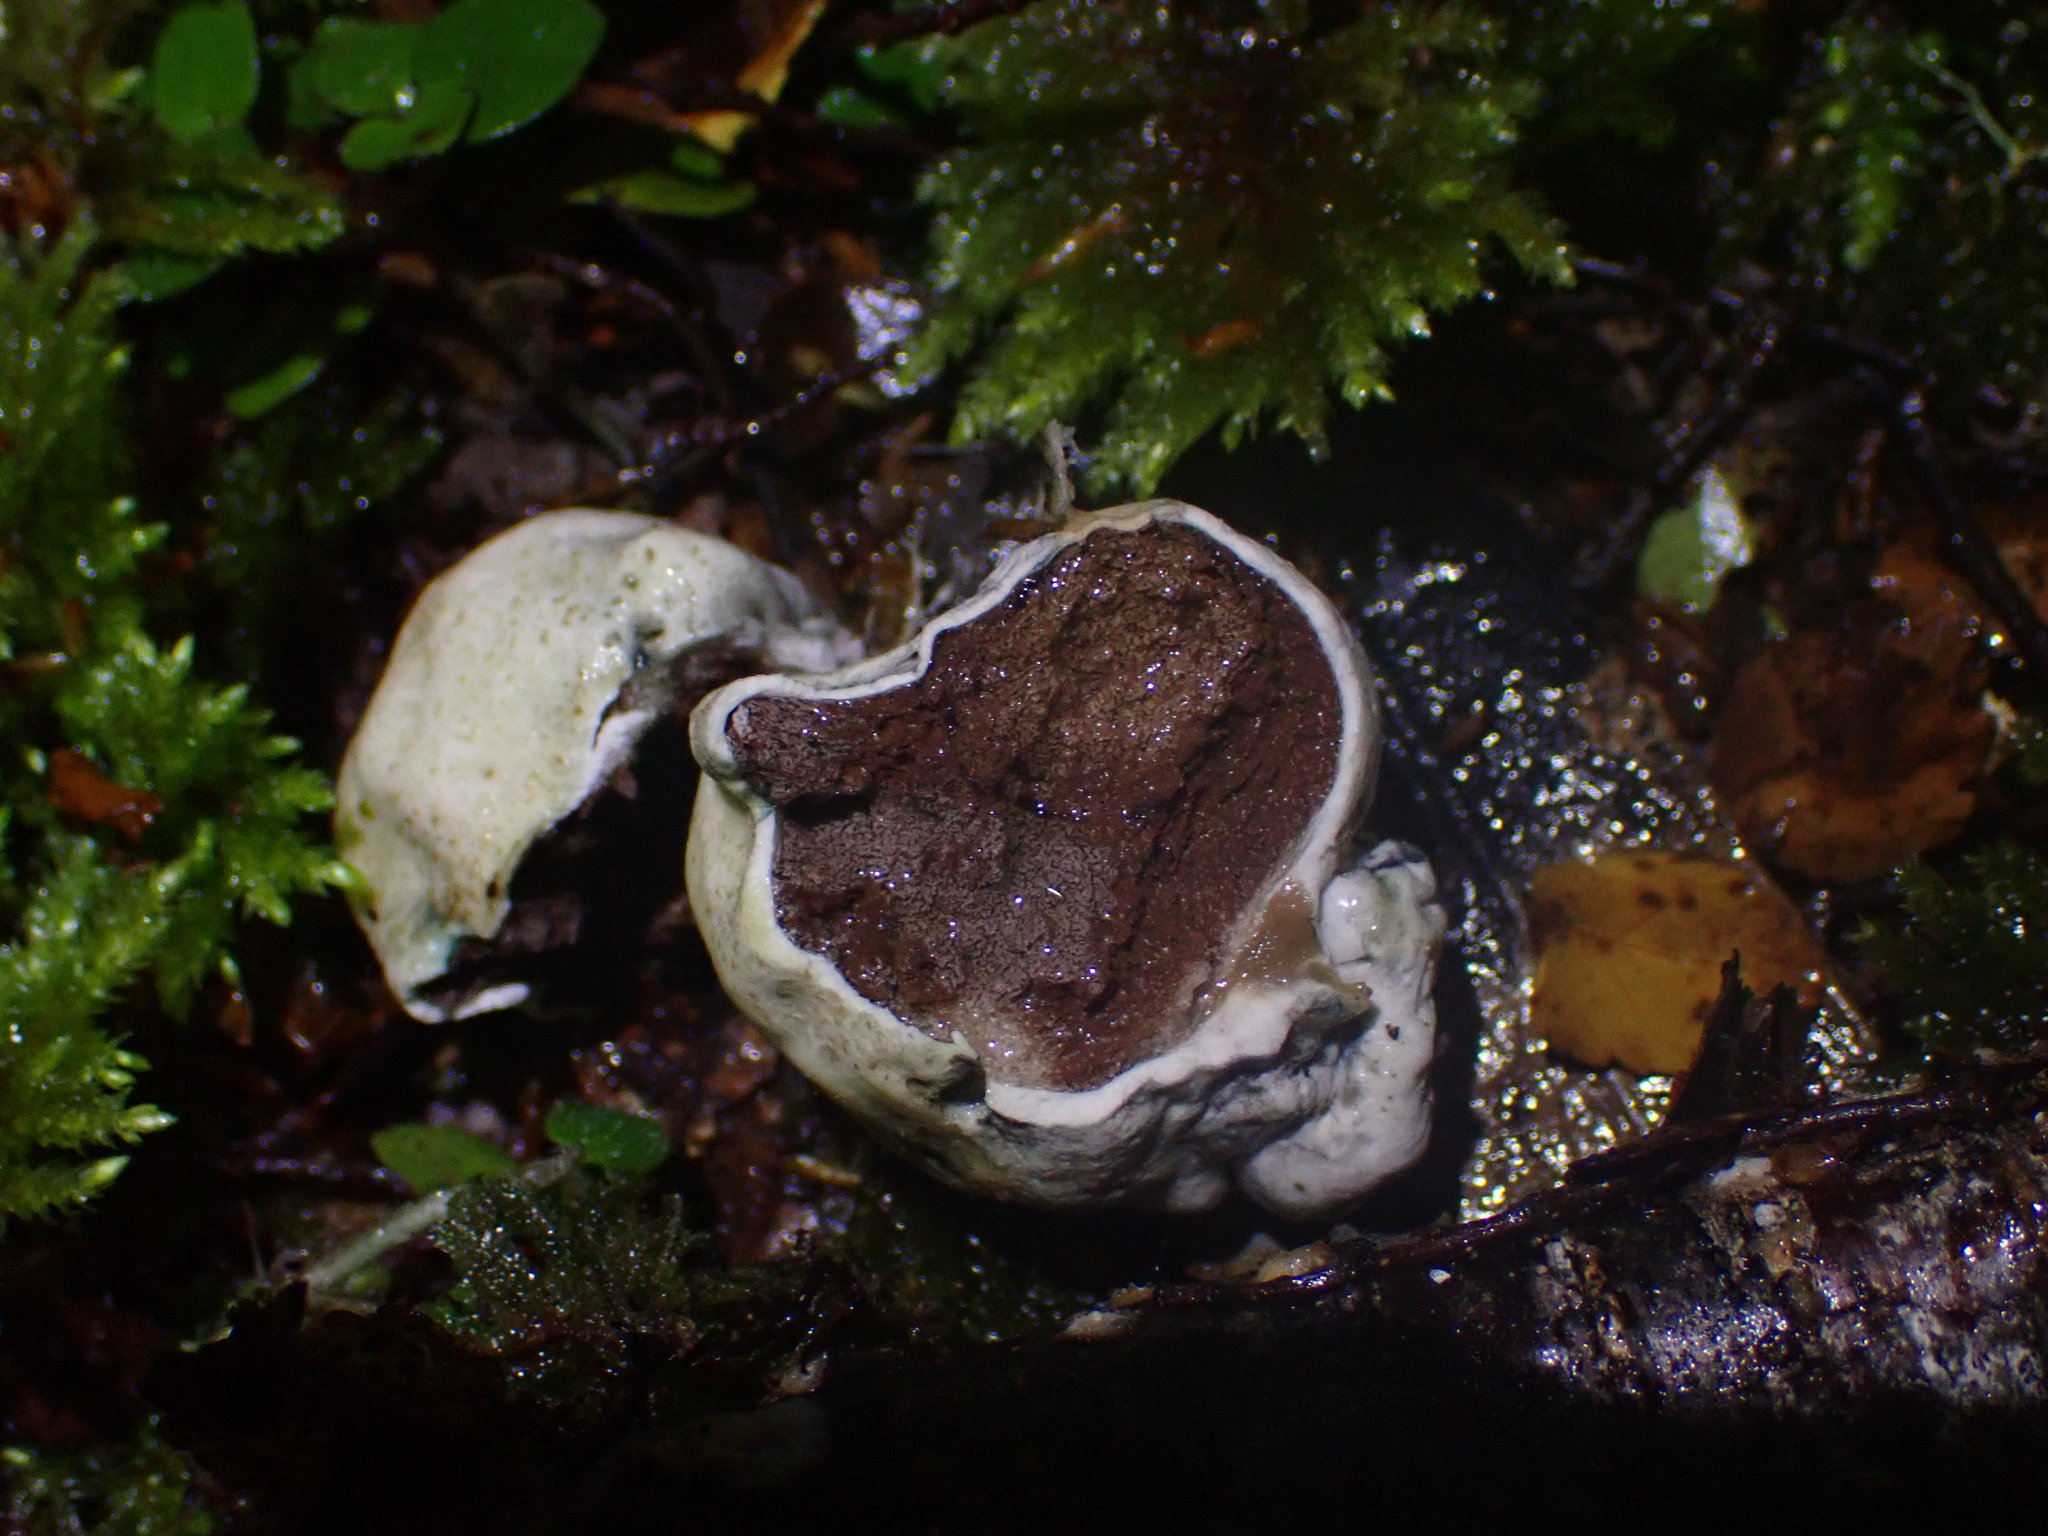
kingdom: Fungi
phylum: Basidiomycota
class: Agaricomycetes
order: Boletales
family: Boletaceae
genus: Leccinum
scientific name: Leccinum pachyderme
